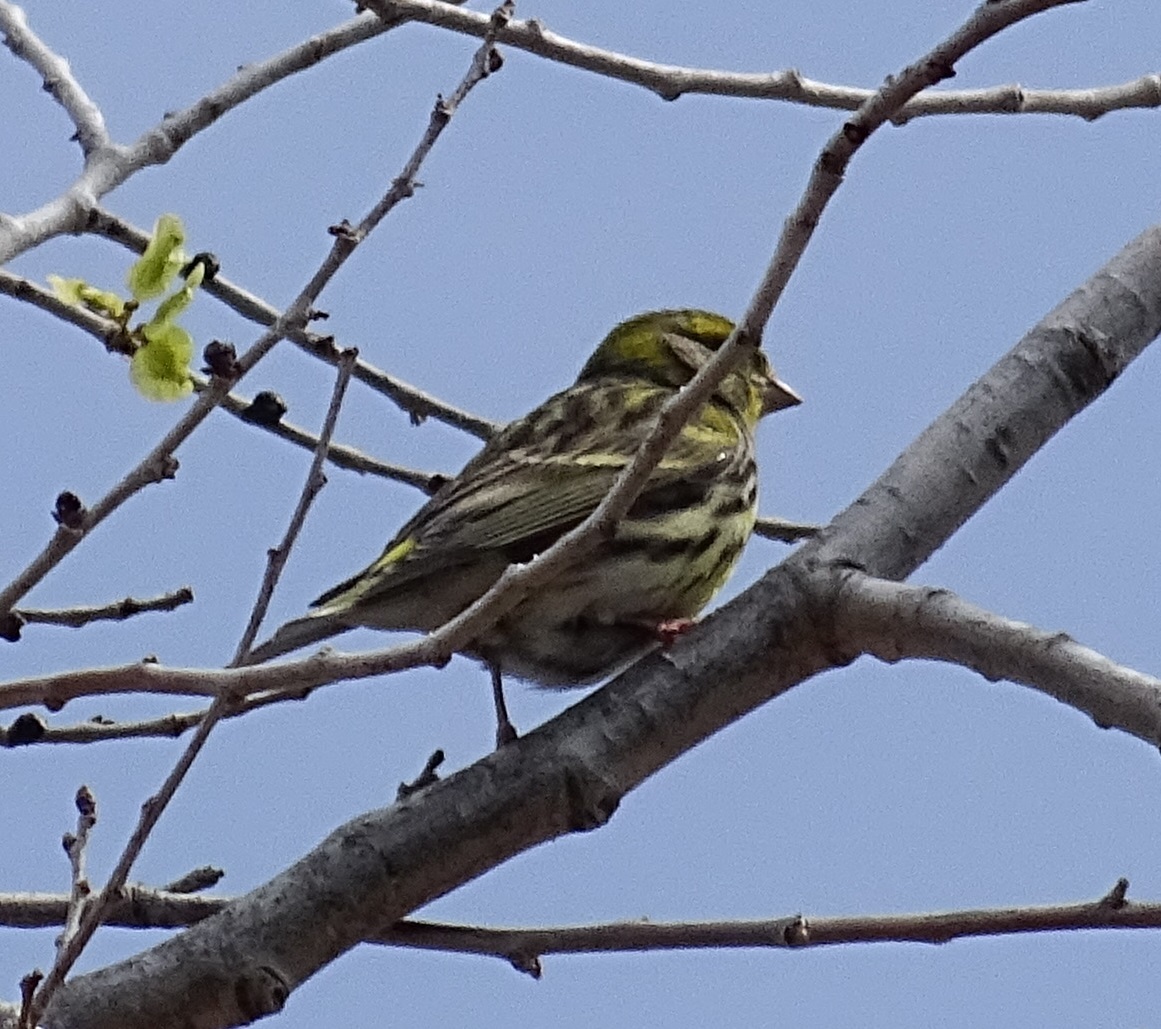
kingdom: Animalia
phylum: Chordata
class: Aves
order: Passeriformes
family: Fringillidae
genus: Serinus
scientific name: Serinus serinus
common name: European serin
